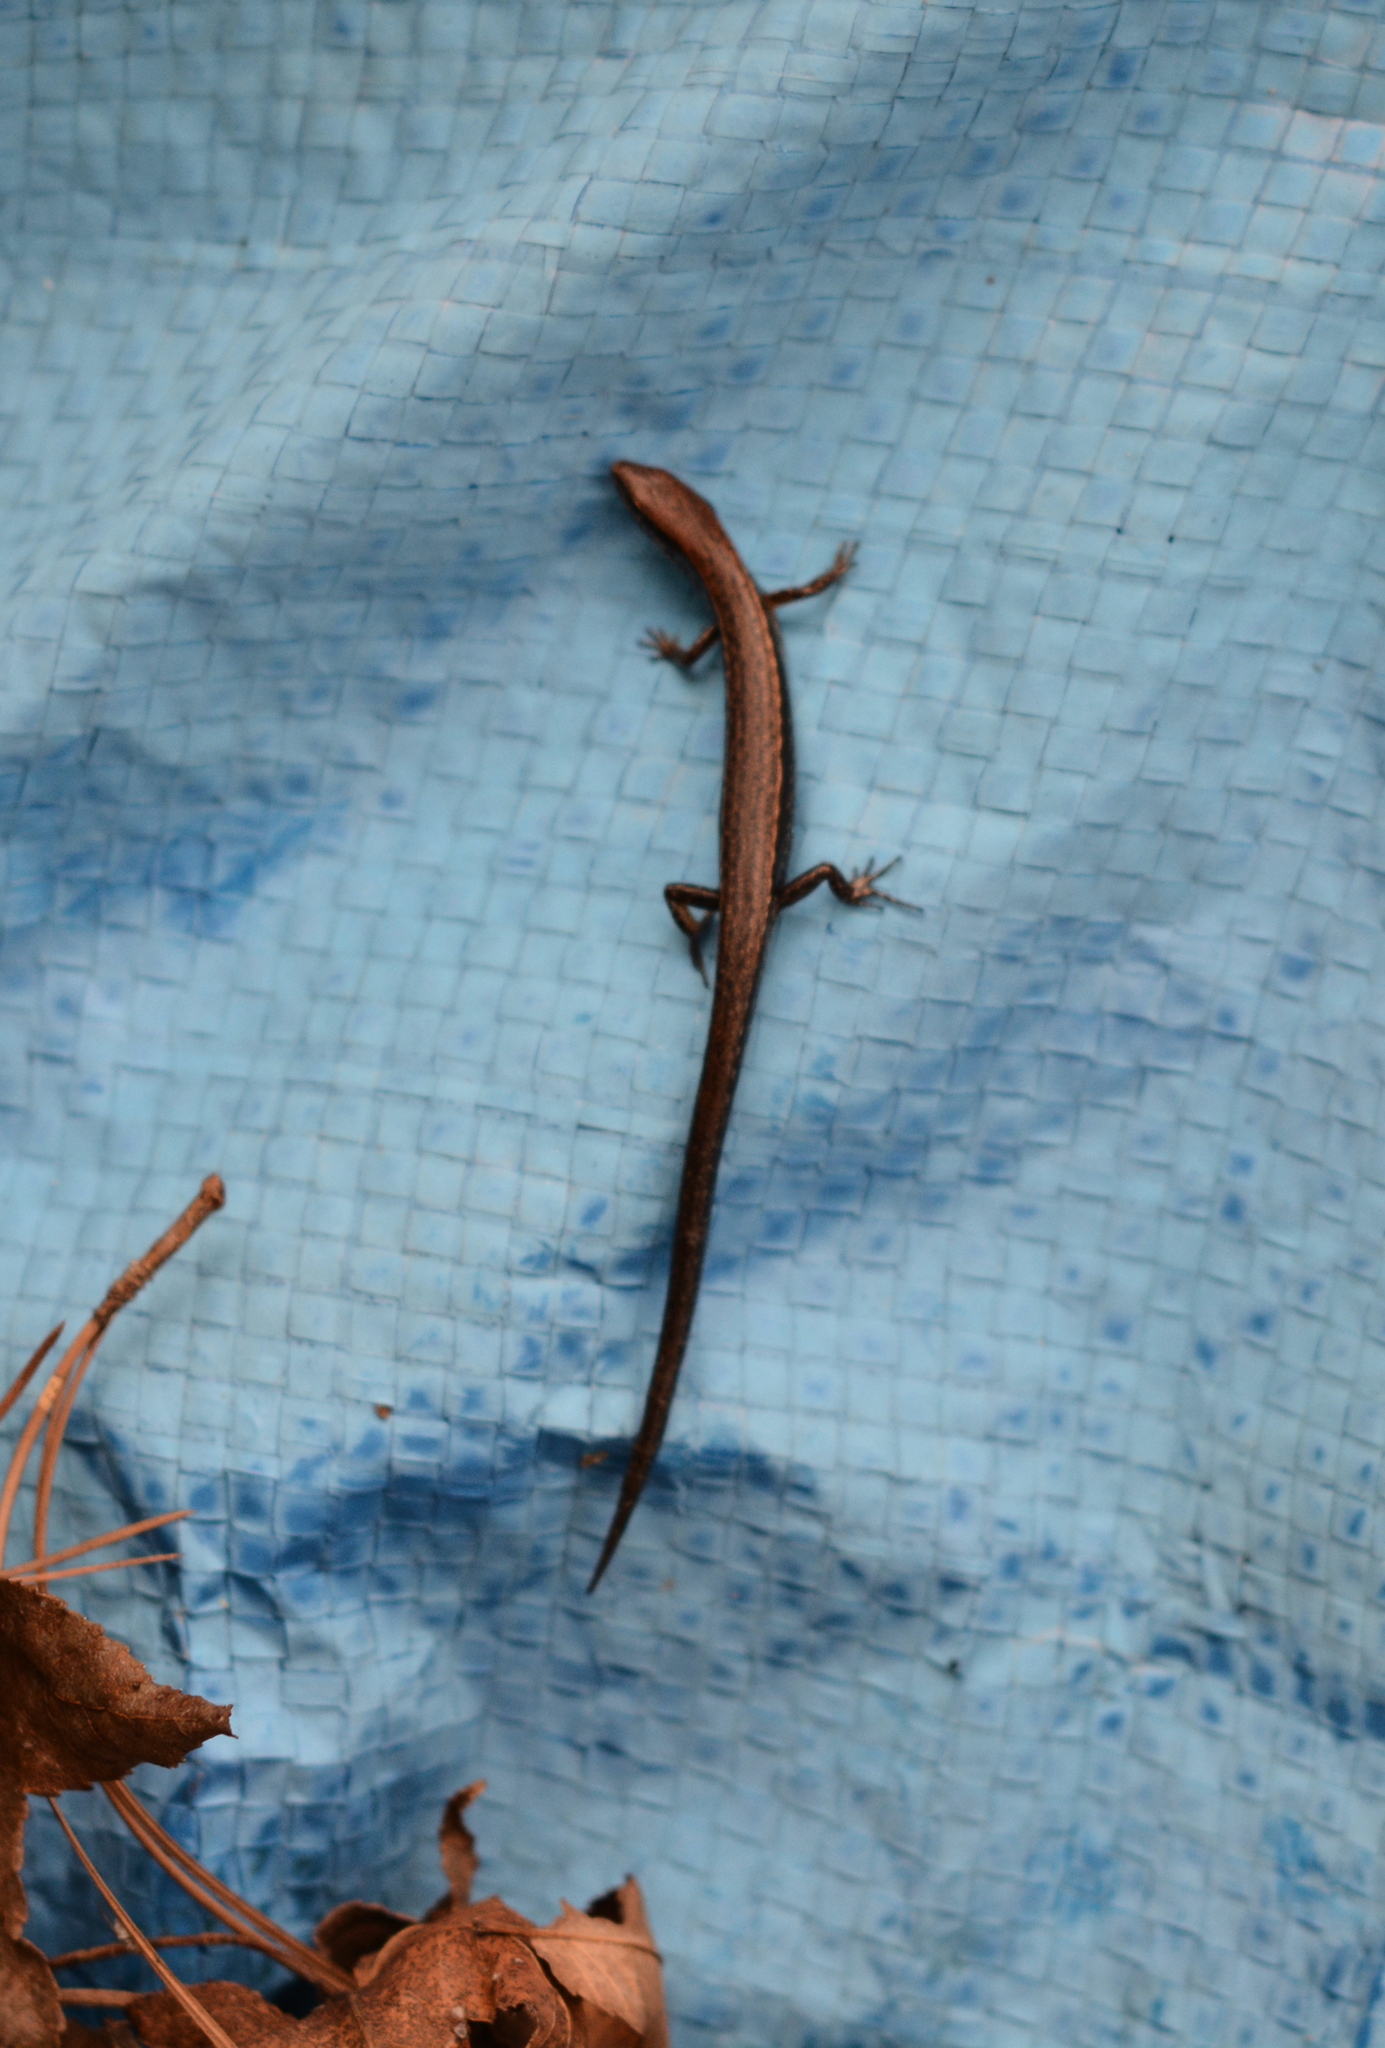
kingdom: Animalia
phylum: Chordata
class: Squamata
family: Scincidae
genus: Scincella
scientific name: Scincella lateralis
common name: Ground skink
